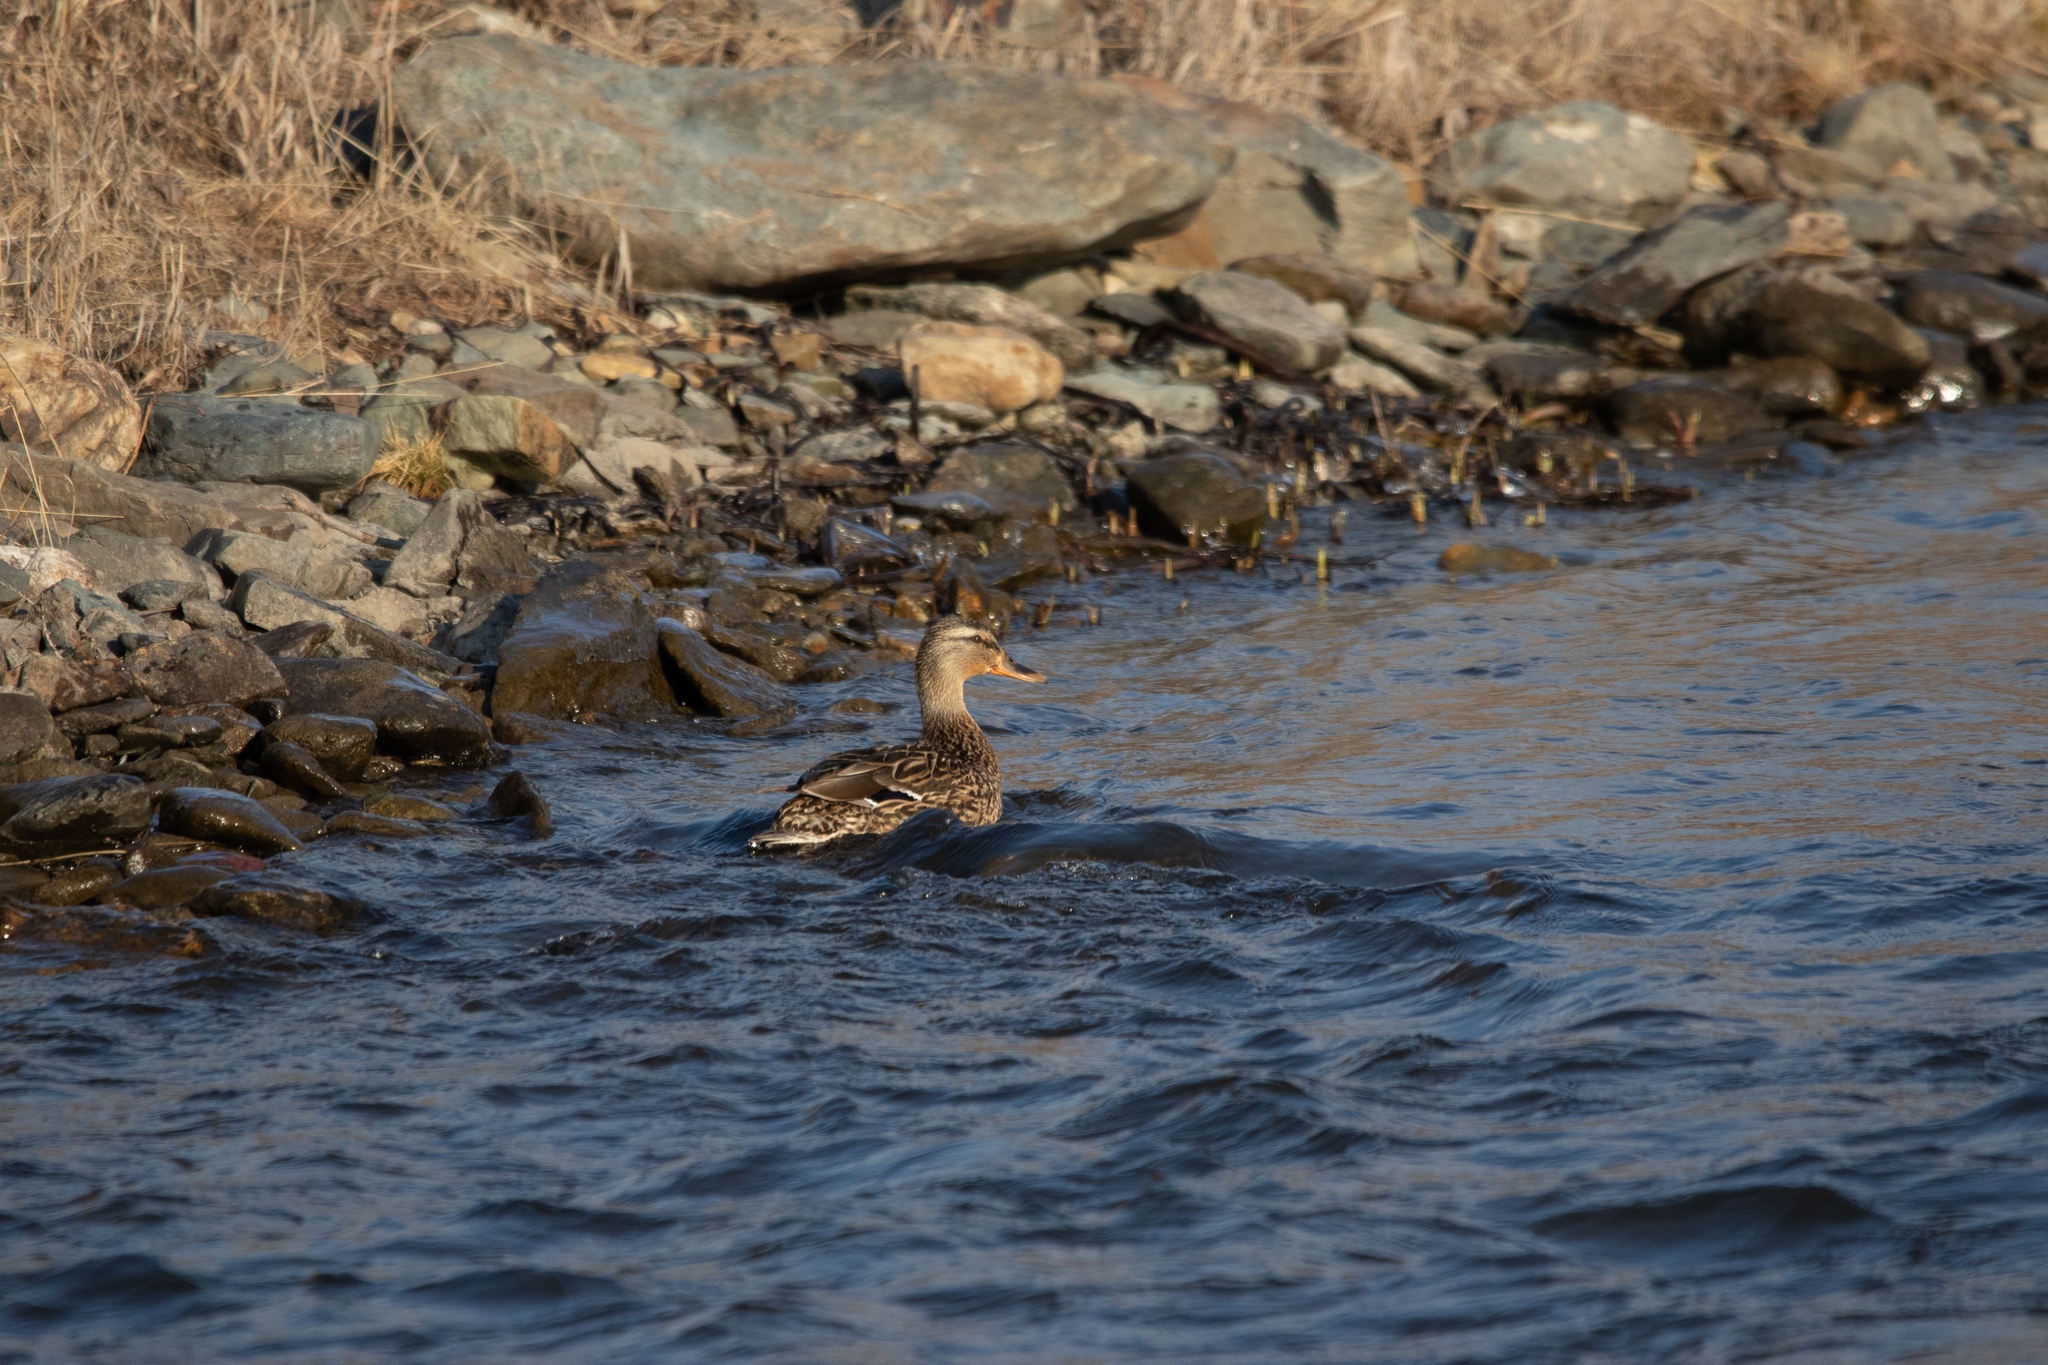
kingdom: Animalia
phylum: Chordata
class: Aves
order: Anseriformes
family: Anatidae
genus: Anas
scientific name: Anas platyrhynchos
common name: Mallard
